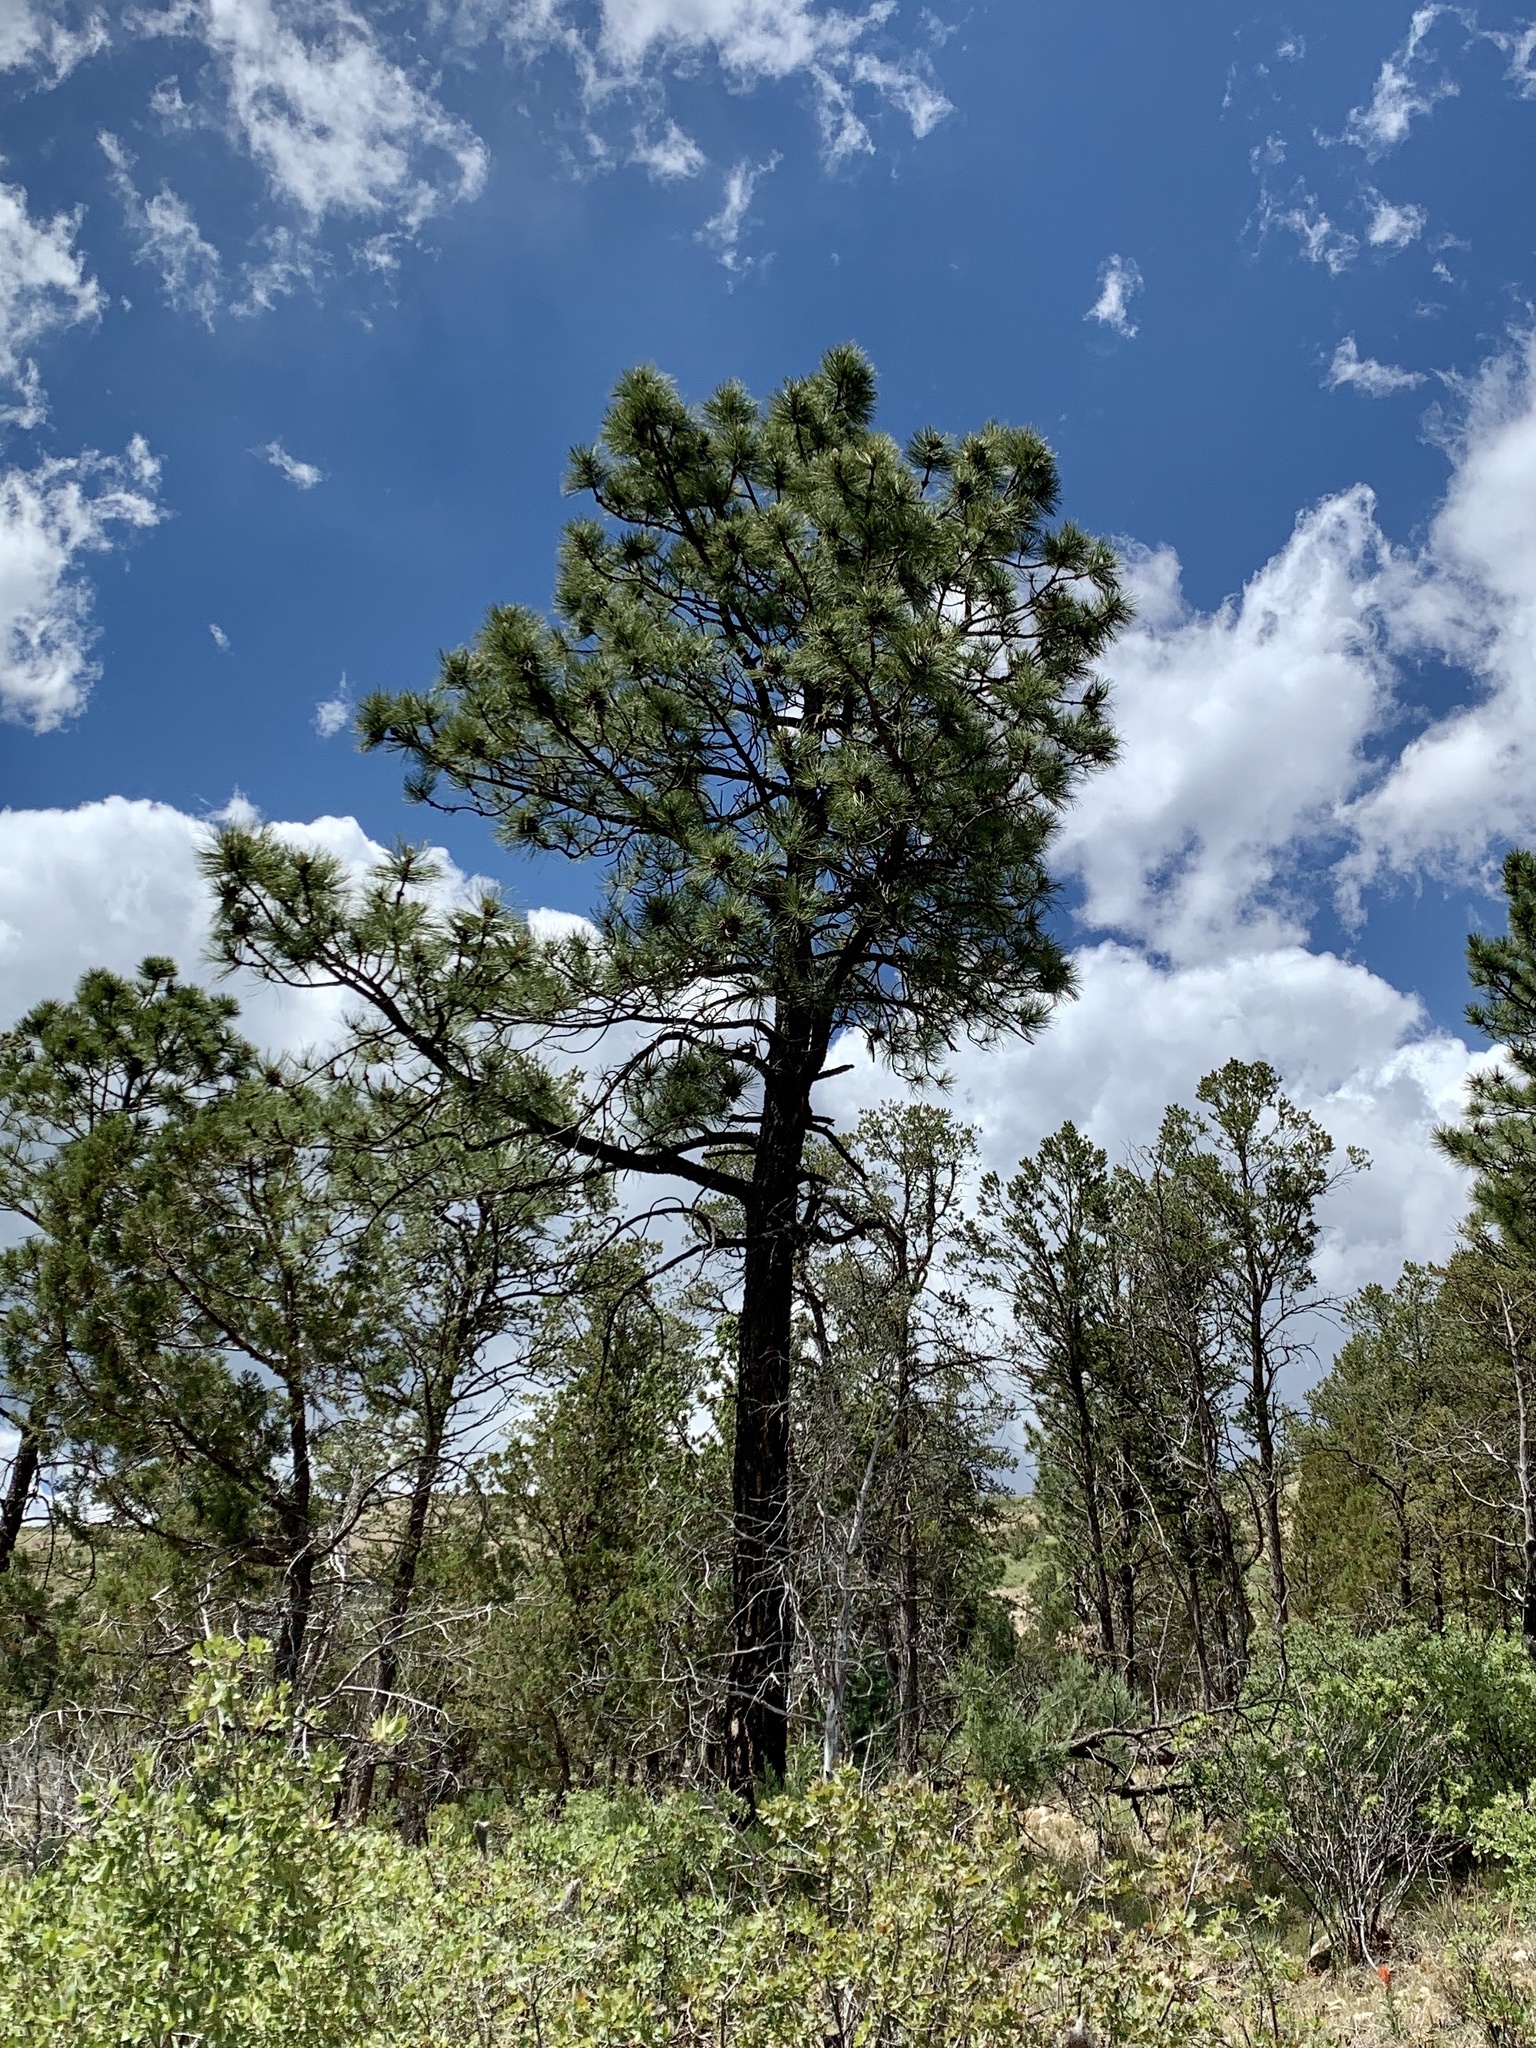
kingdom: Plantae
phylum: Tracheophyta
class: Pinopsida
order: Pinales
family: Pinaceae
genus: Pinus
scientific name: Pinus ponderosa
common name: Western yellow-pine
